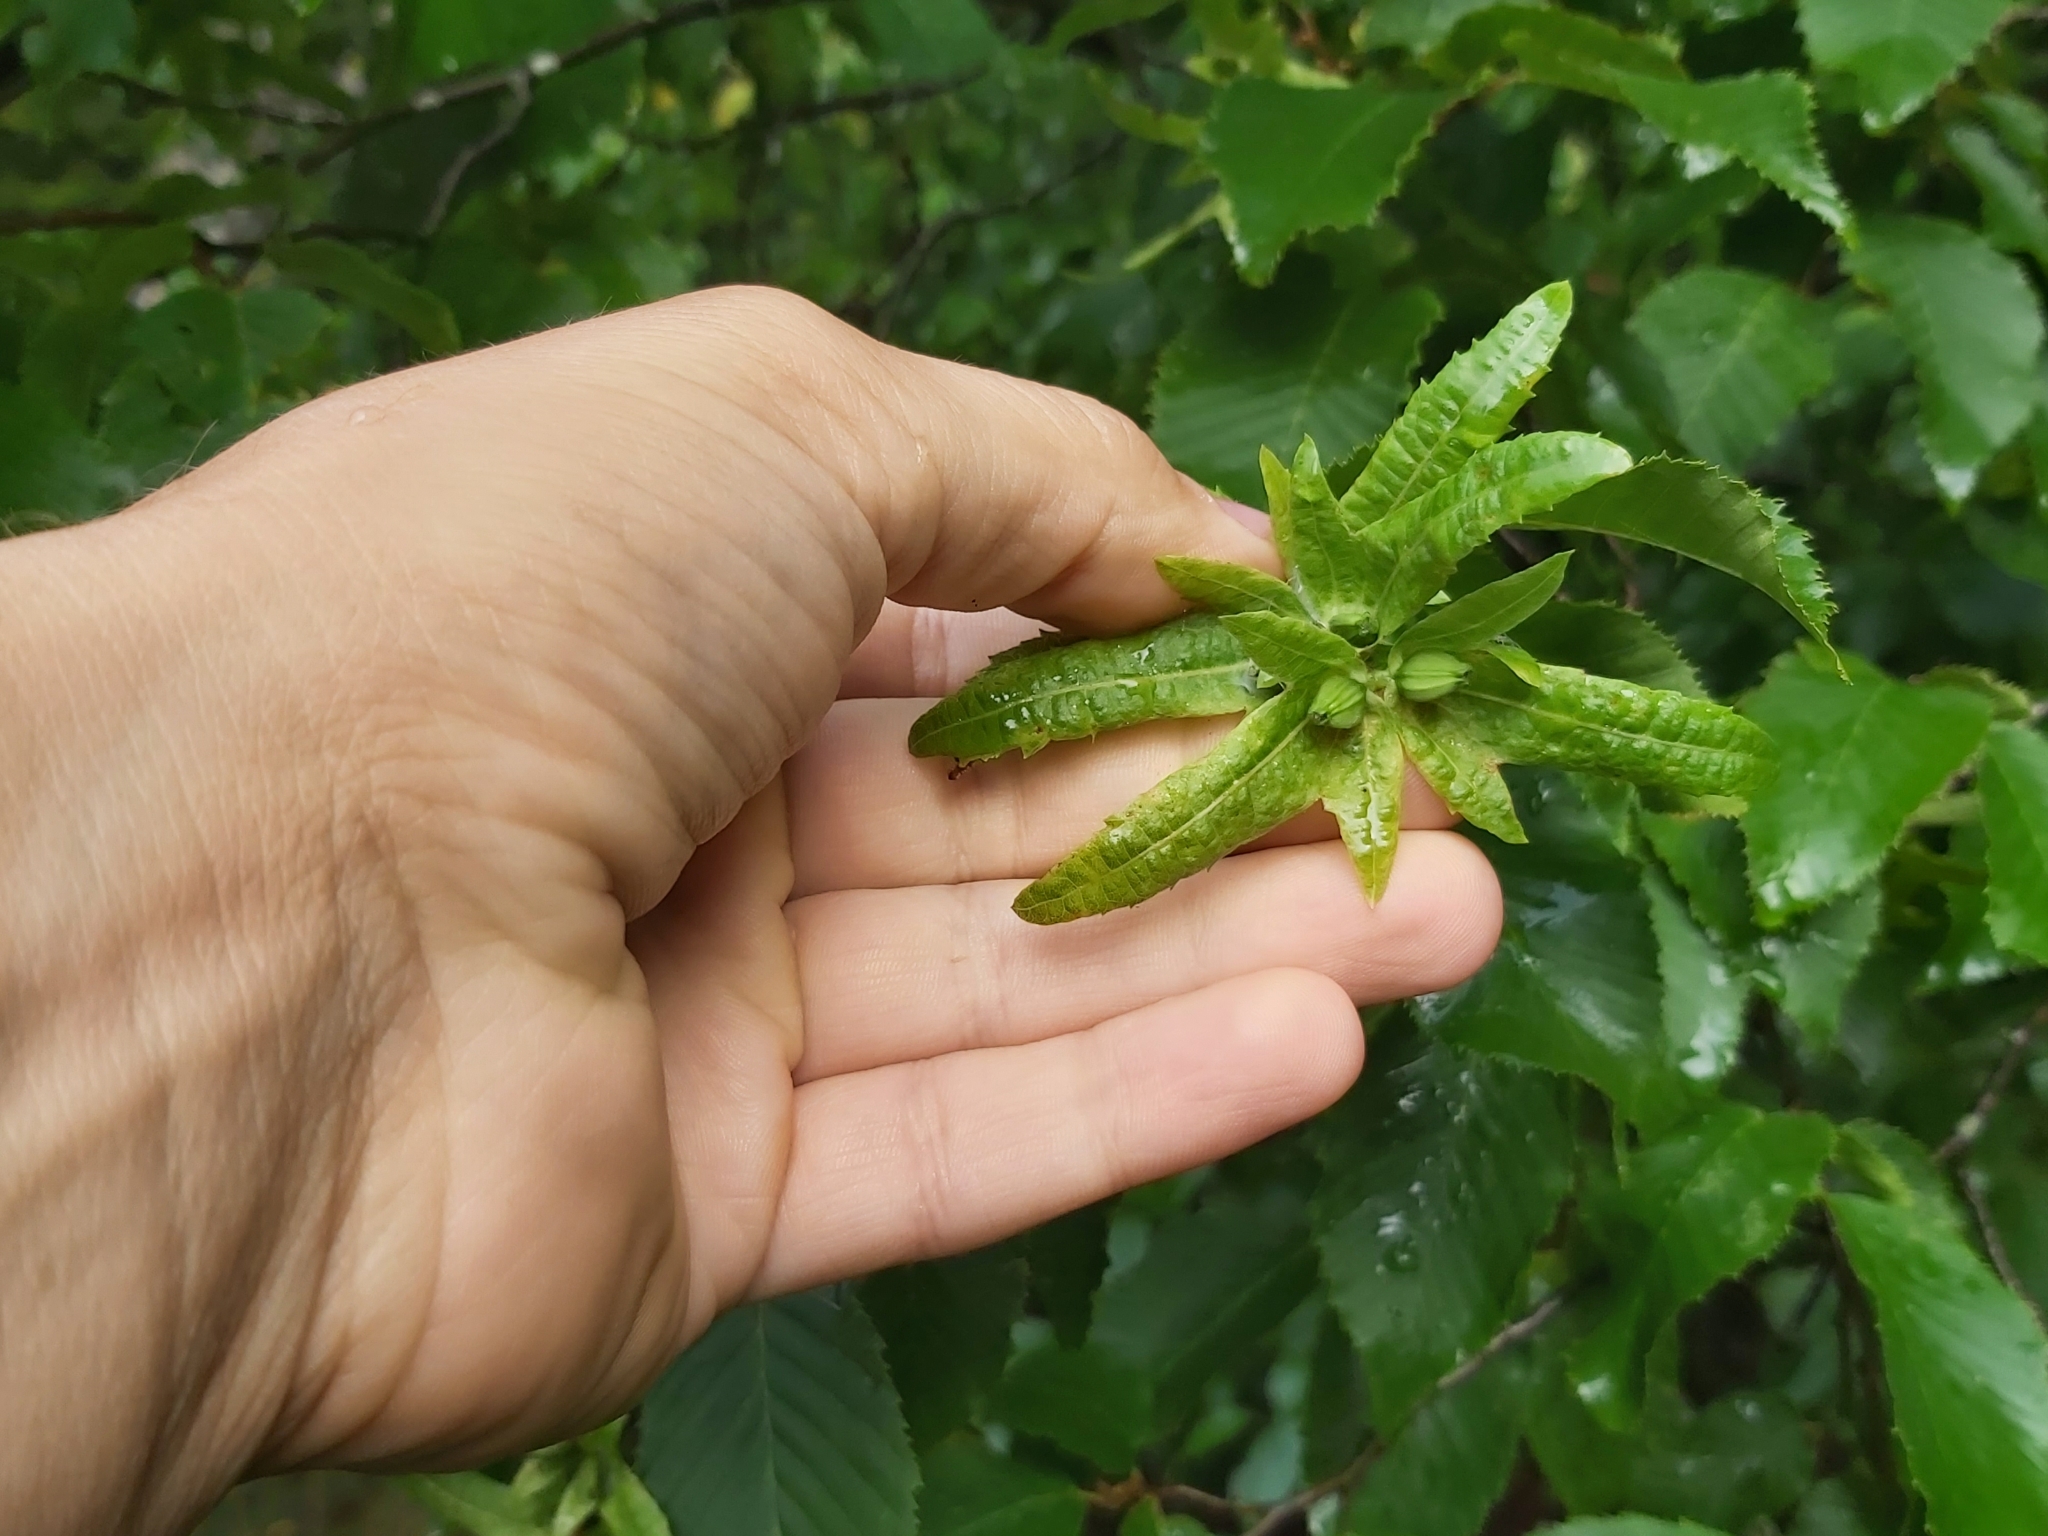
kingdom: Plantae
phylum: Tracheophyta
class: Magnoliopsida
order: Fagales
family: Betulaceae
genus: Carpinus
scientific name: Carpinus betulus
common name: Hornbeam
